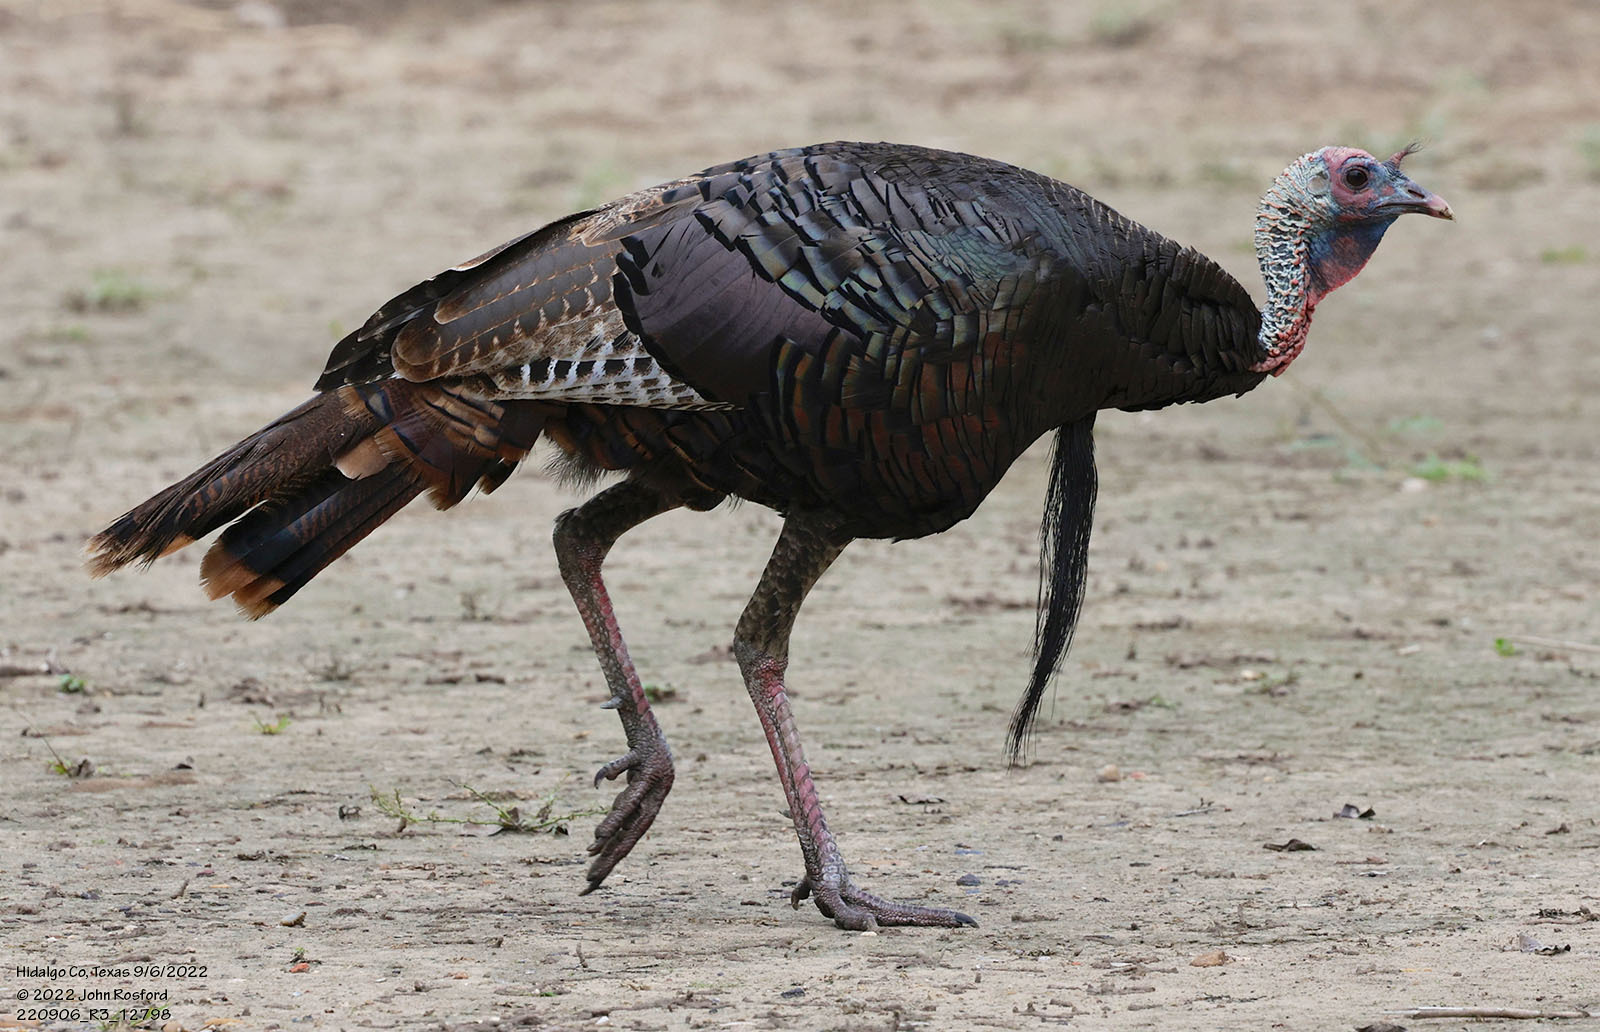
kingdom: Animalia
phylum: Chordata
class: Aves
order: Galliformes
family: Phasianidae
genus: Meleagris
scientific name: Meleagris gallopavo
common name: Wild turkey
